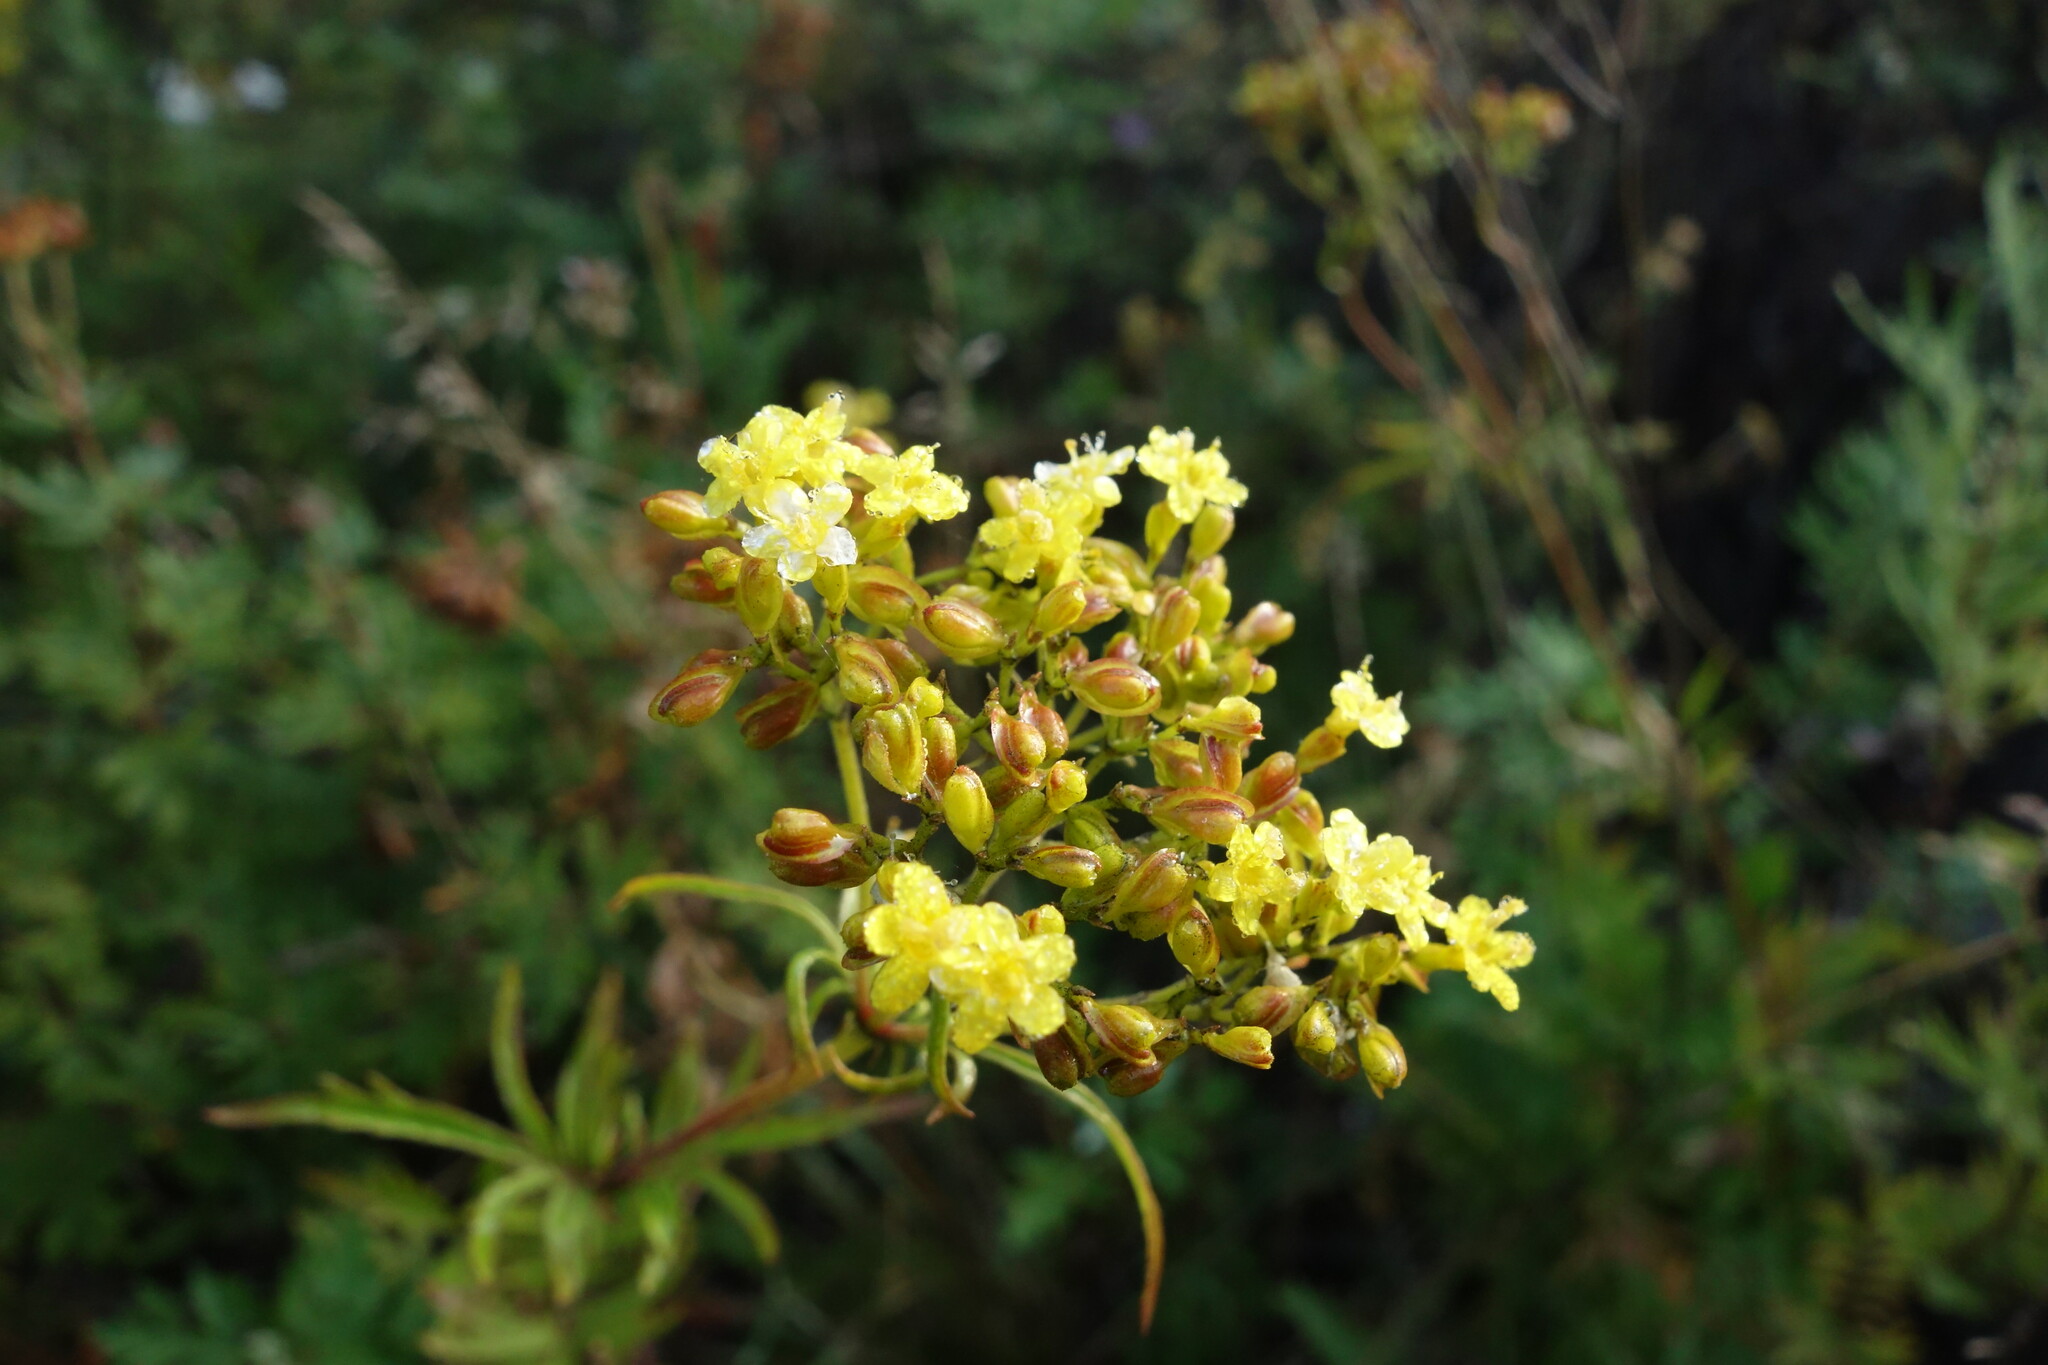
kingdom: Plantae
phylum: Tracheophyta
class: Magnoliopsida
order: Dipsacales
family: Caprifoliaceae
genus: Patrinia
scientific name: Patrinia rupestris
